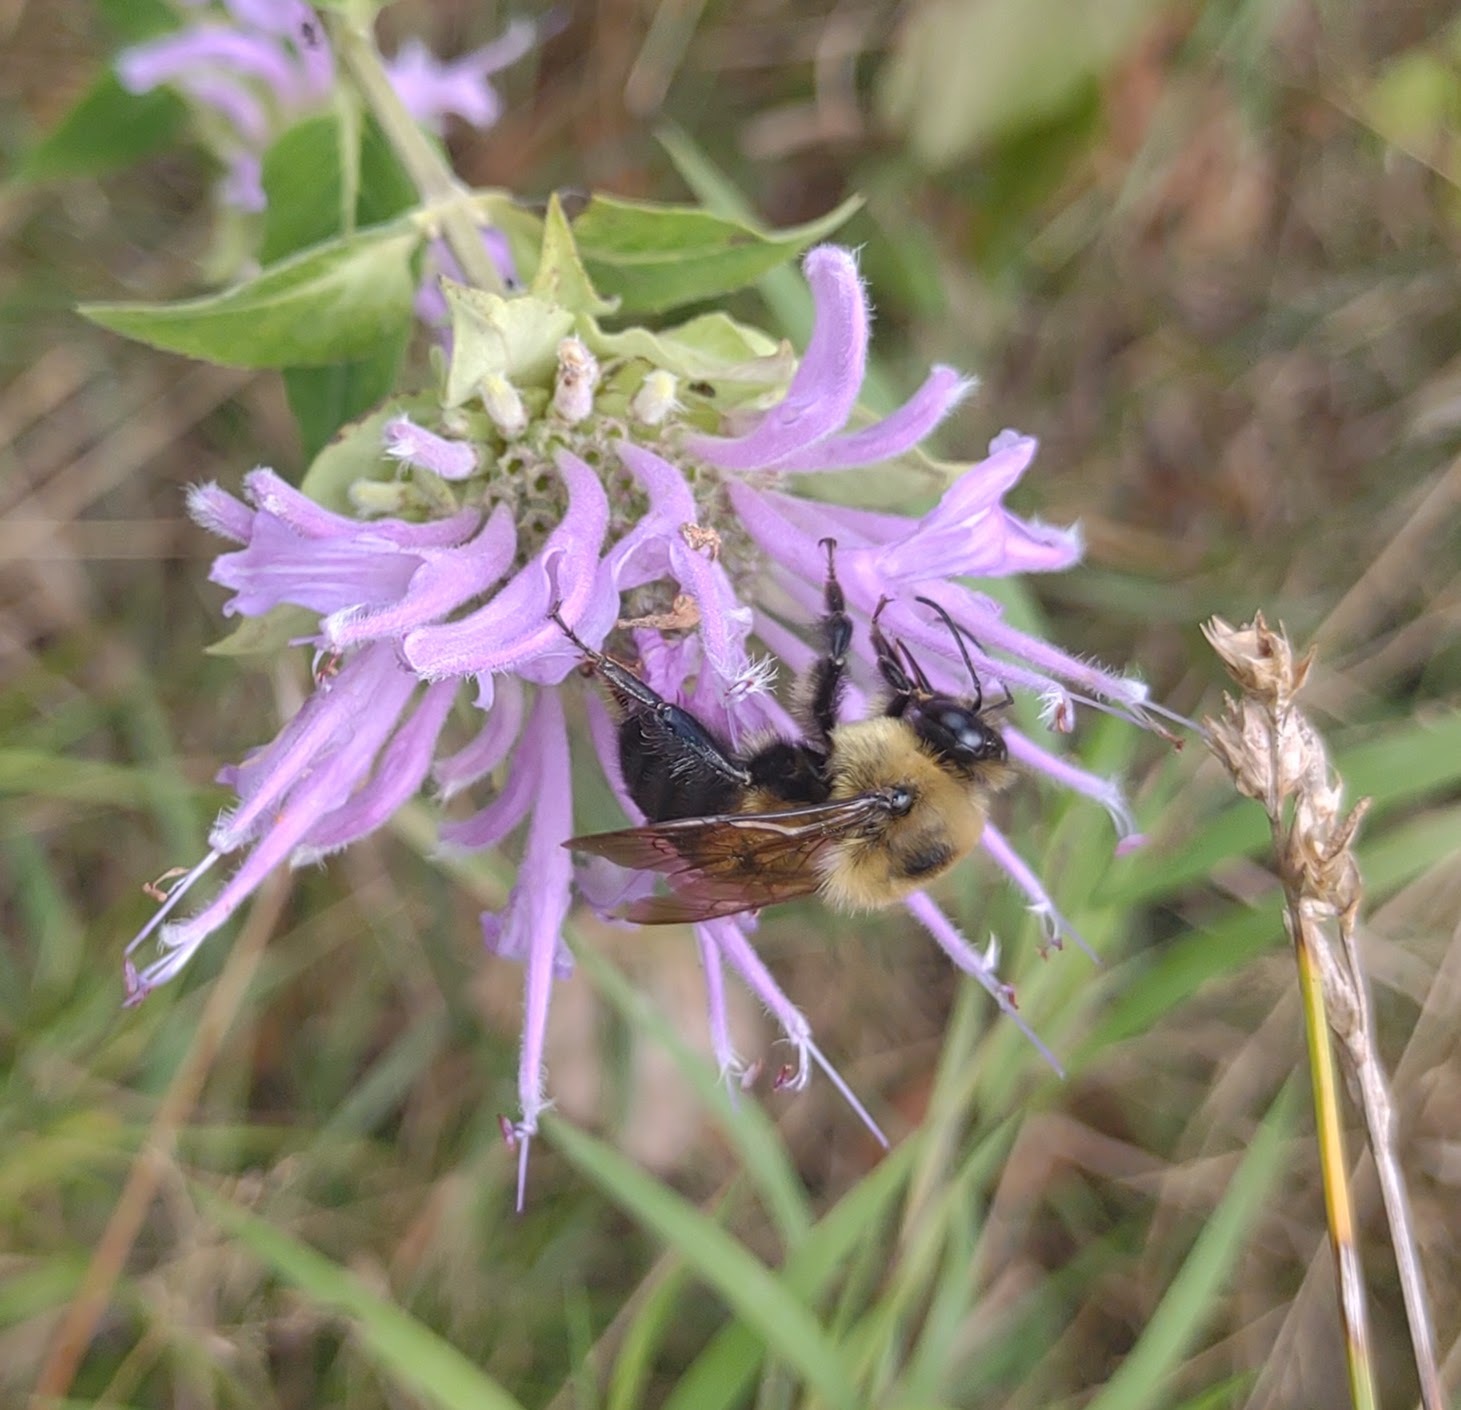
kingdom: Animalia
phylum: Arthropoda
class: Insecta
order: Hymenoptera
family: Apidae
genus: Bombus
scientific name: Bombus griseocollis
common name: Brown-belted bumble bee
